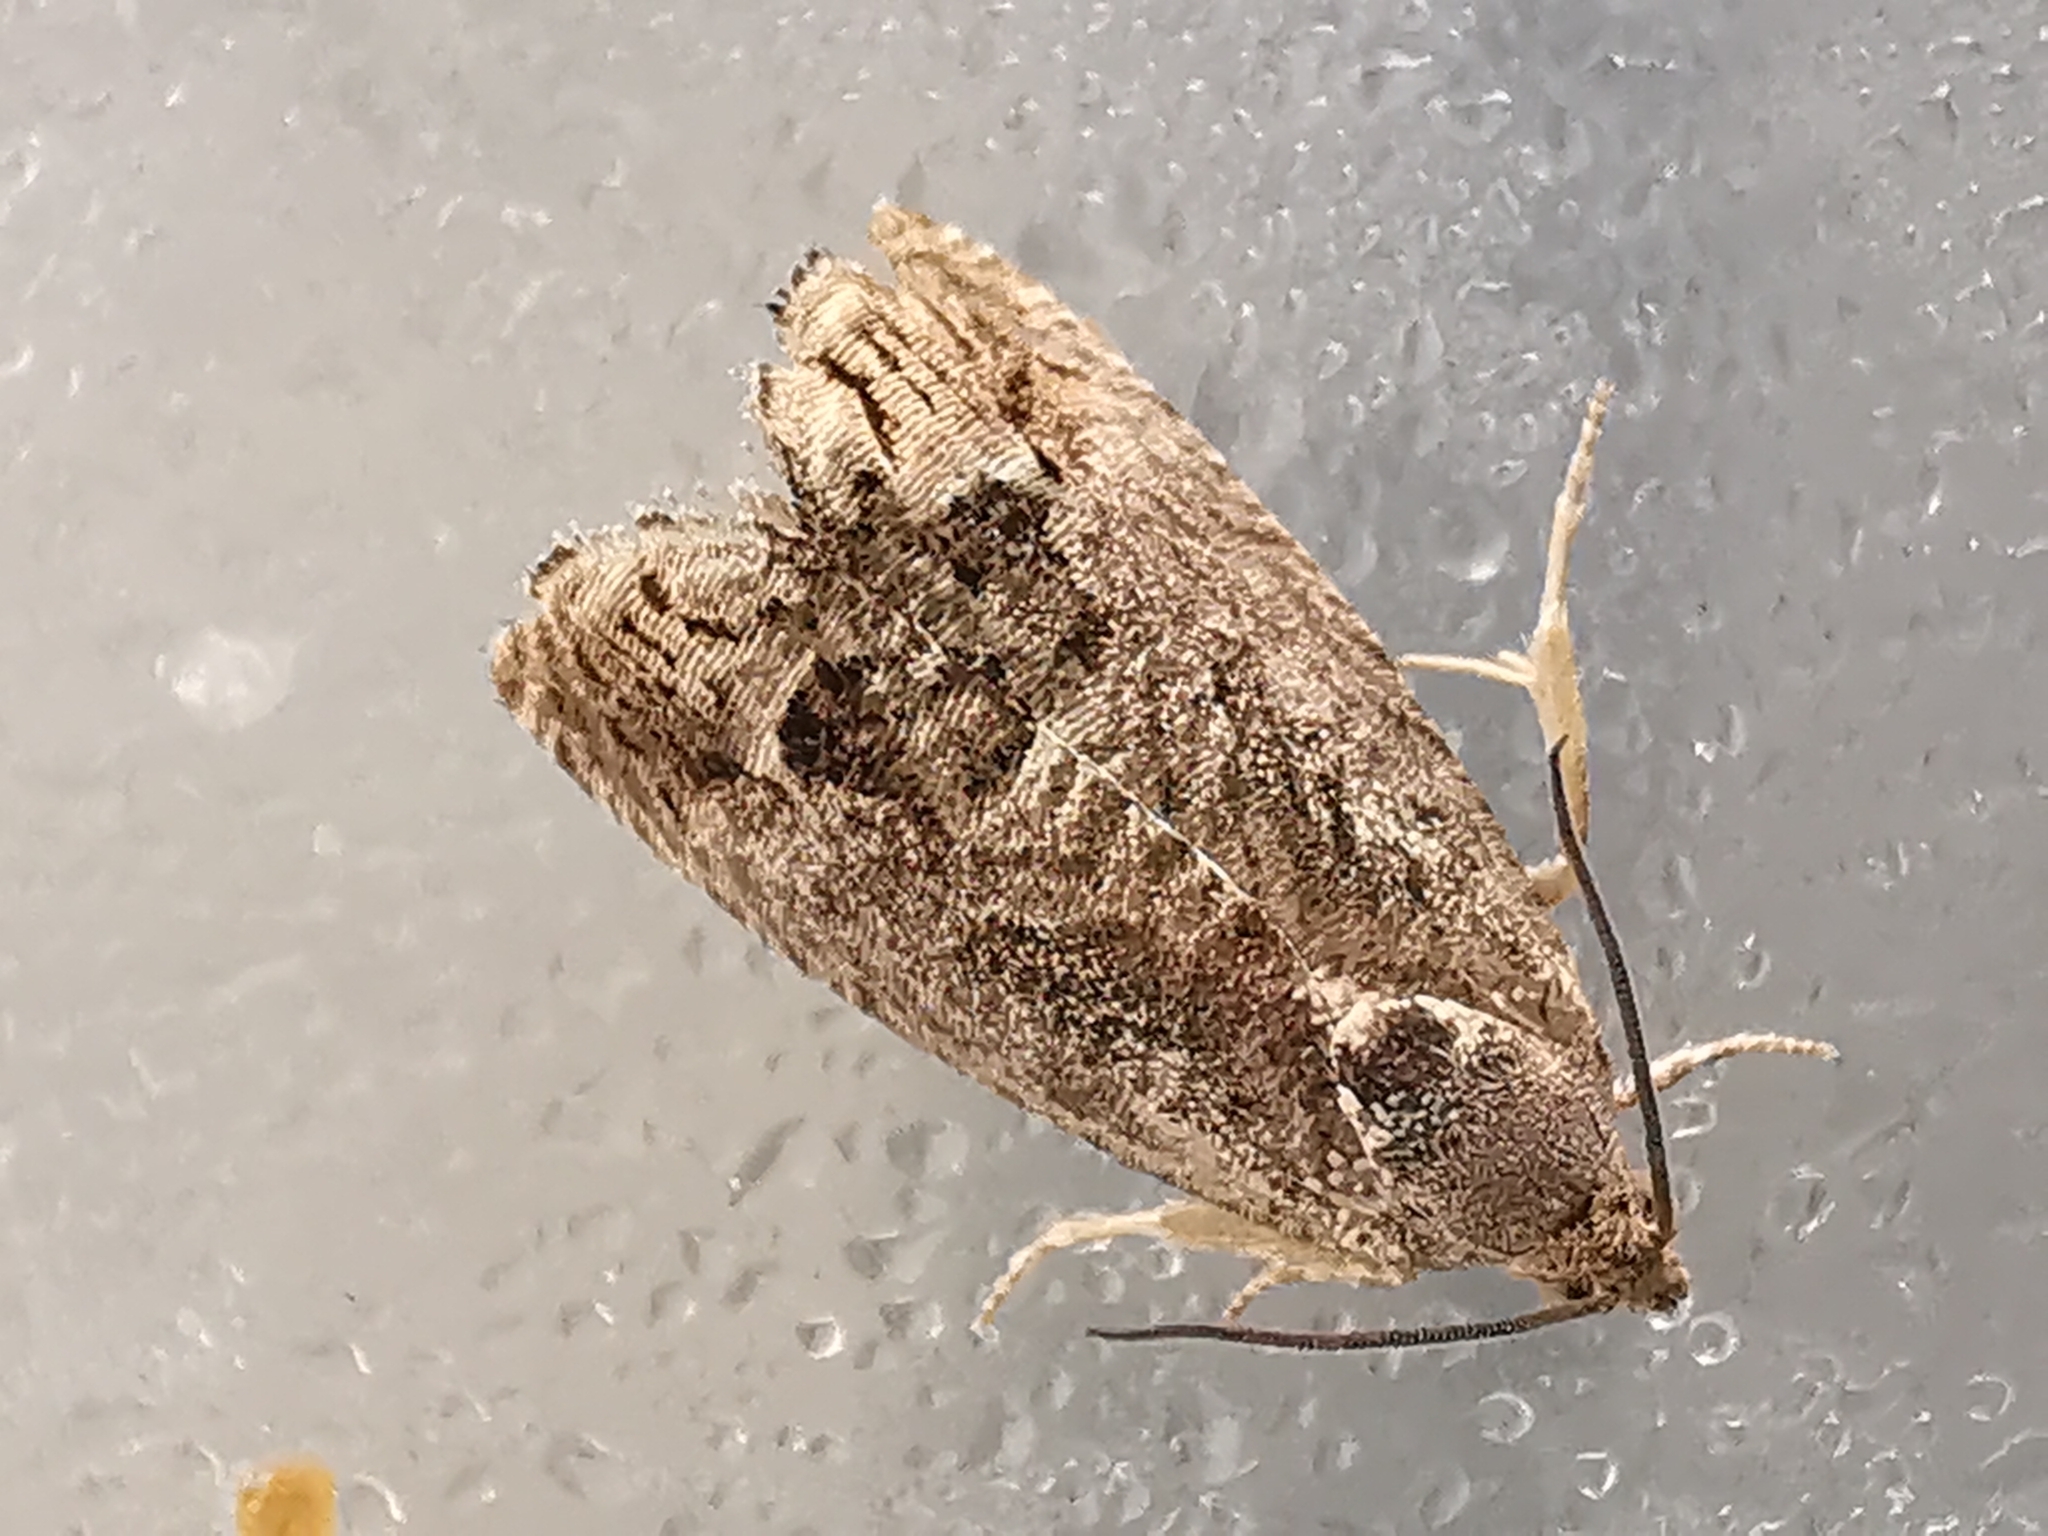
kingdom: Animalia
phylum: Arthropoda
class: Insecta
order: Lepidoptera
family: Tortricidae
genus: Cydia
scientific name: Cydia splendana
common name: De: kastanienwickler, eichenwickler es: oruga de la castaña fr: carpocapse des châtaignes it: cidia o tortrice tardiva delle castagne pt: bichado das castanhas gb: acorn moth, chestnut fruit tortrix
